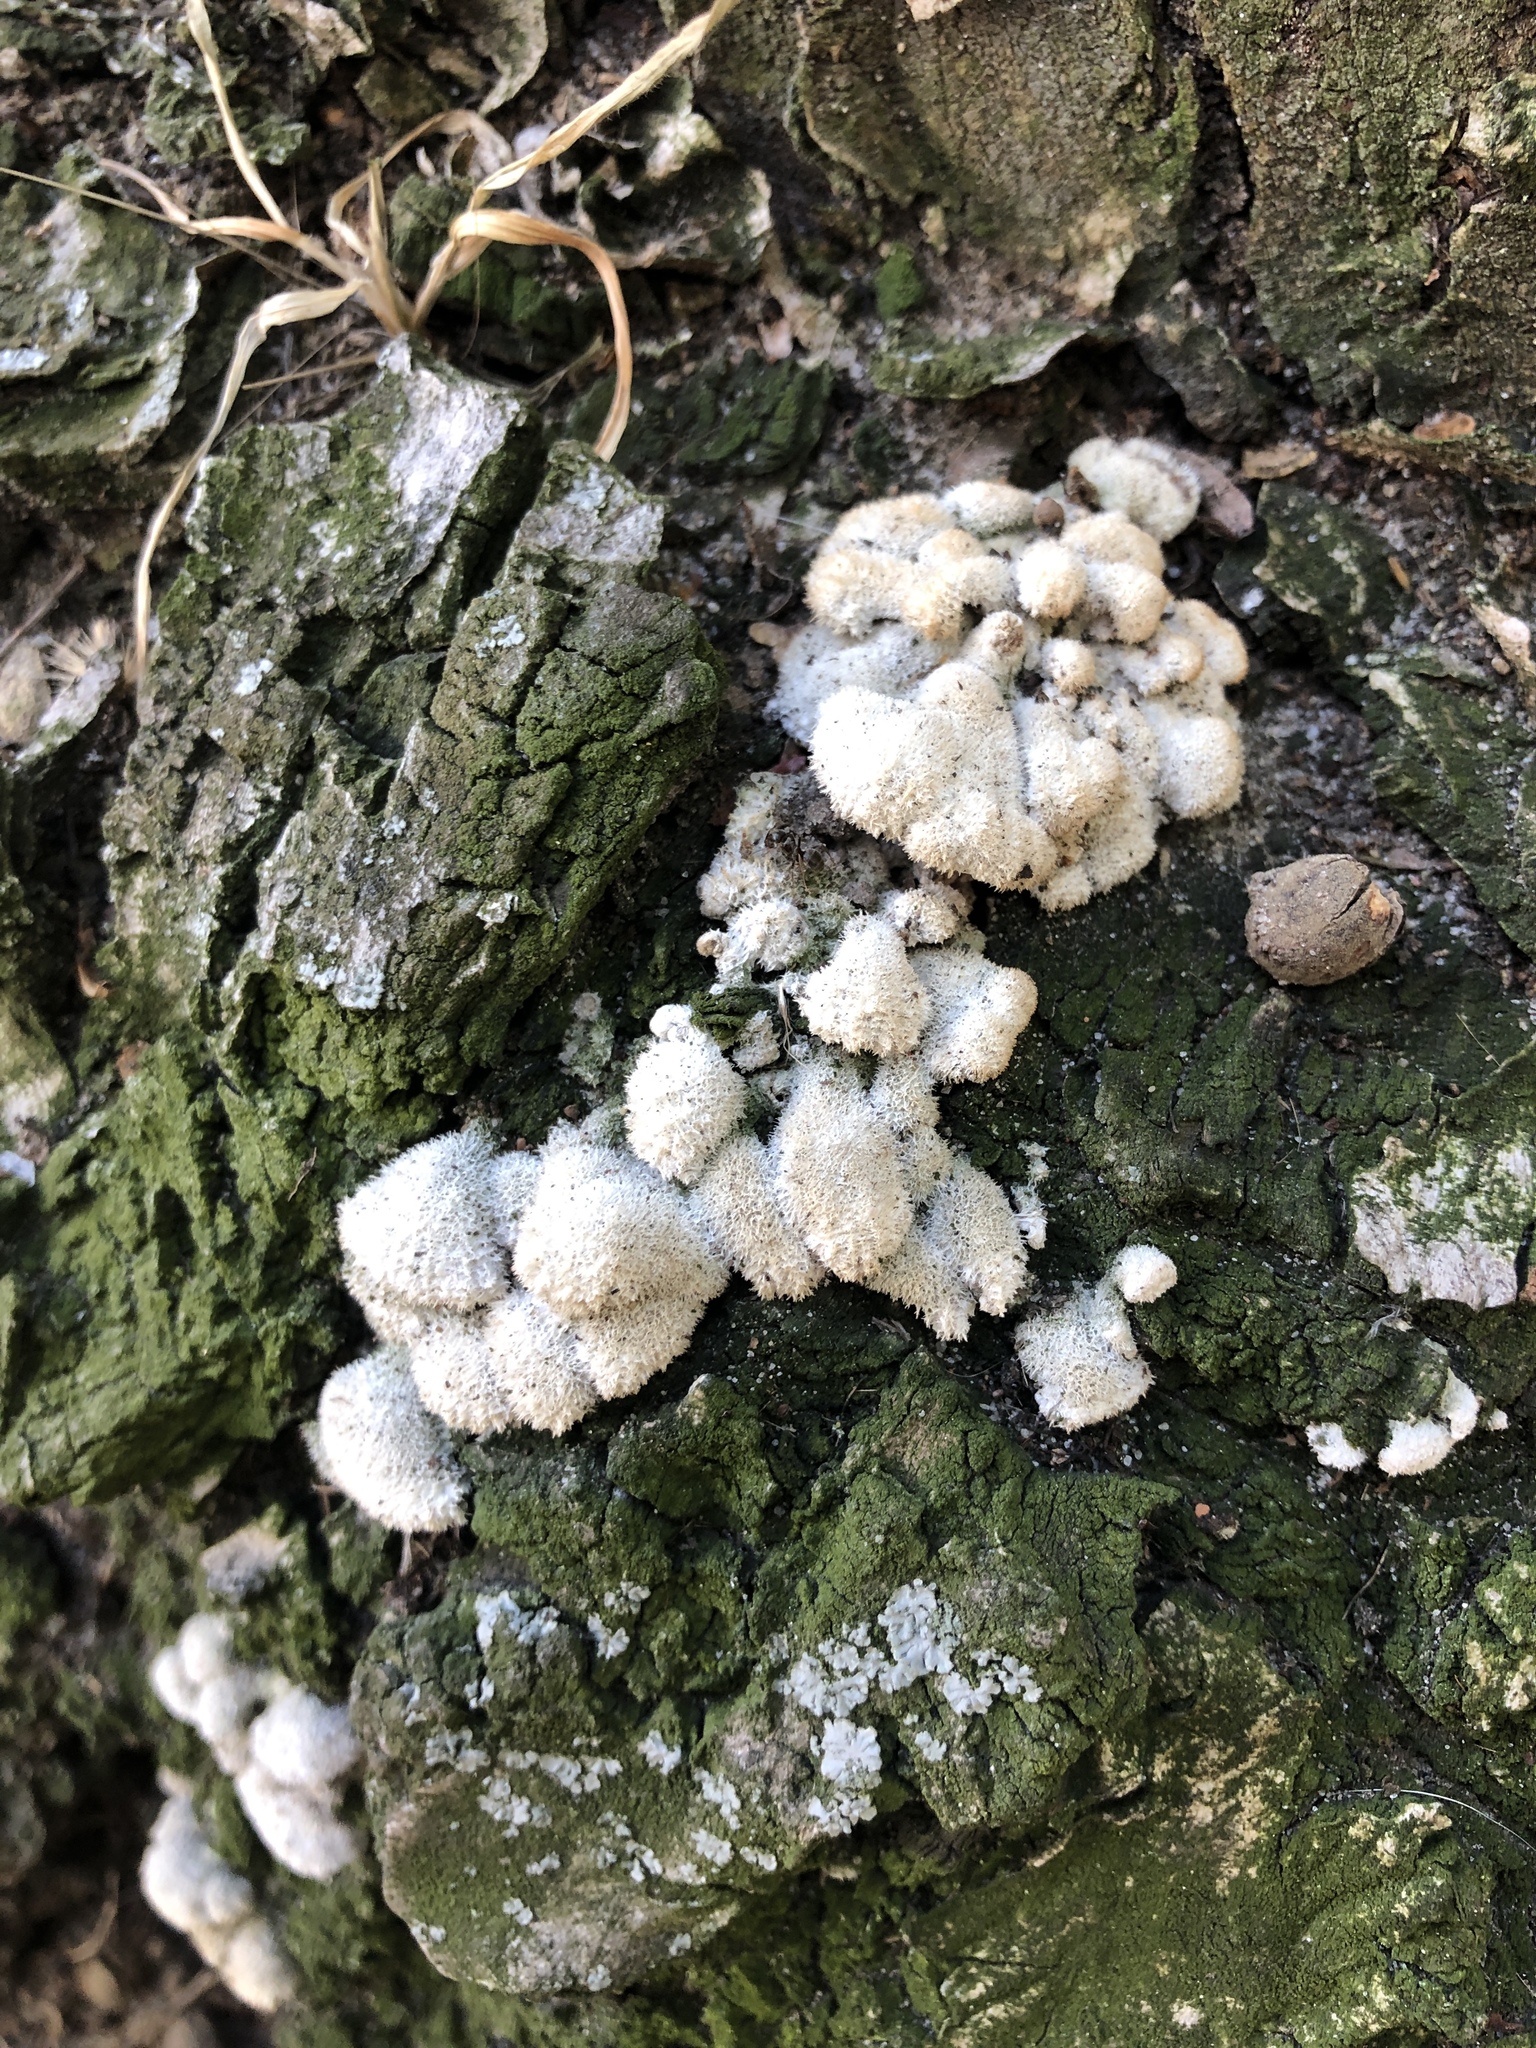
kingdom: Fungi
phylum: Basidiomycota
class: Agaricomycetes
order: Agaricales
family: Schizophyllaceae
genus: Schizophyllum
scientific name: Schizophyllum commune
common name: Common porecrust
